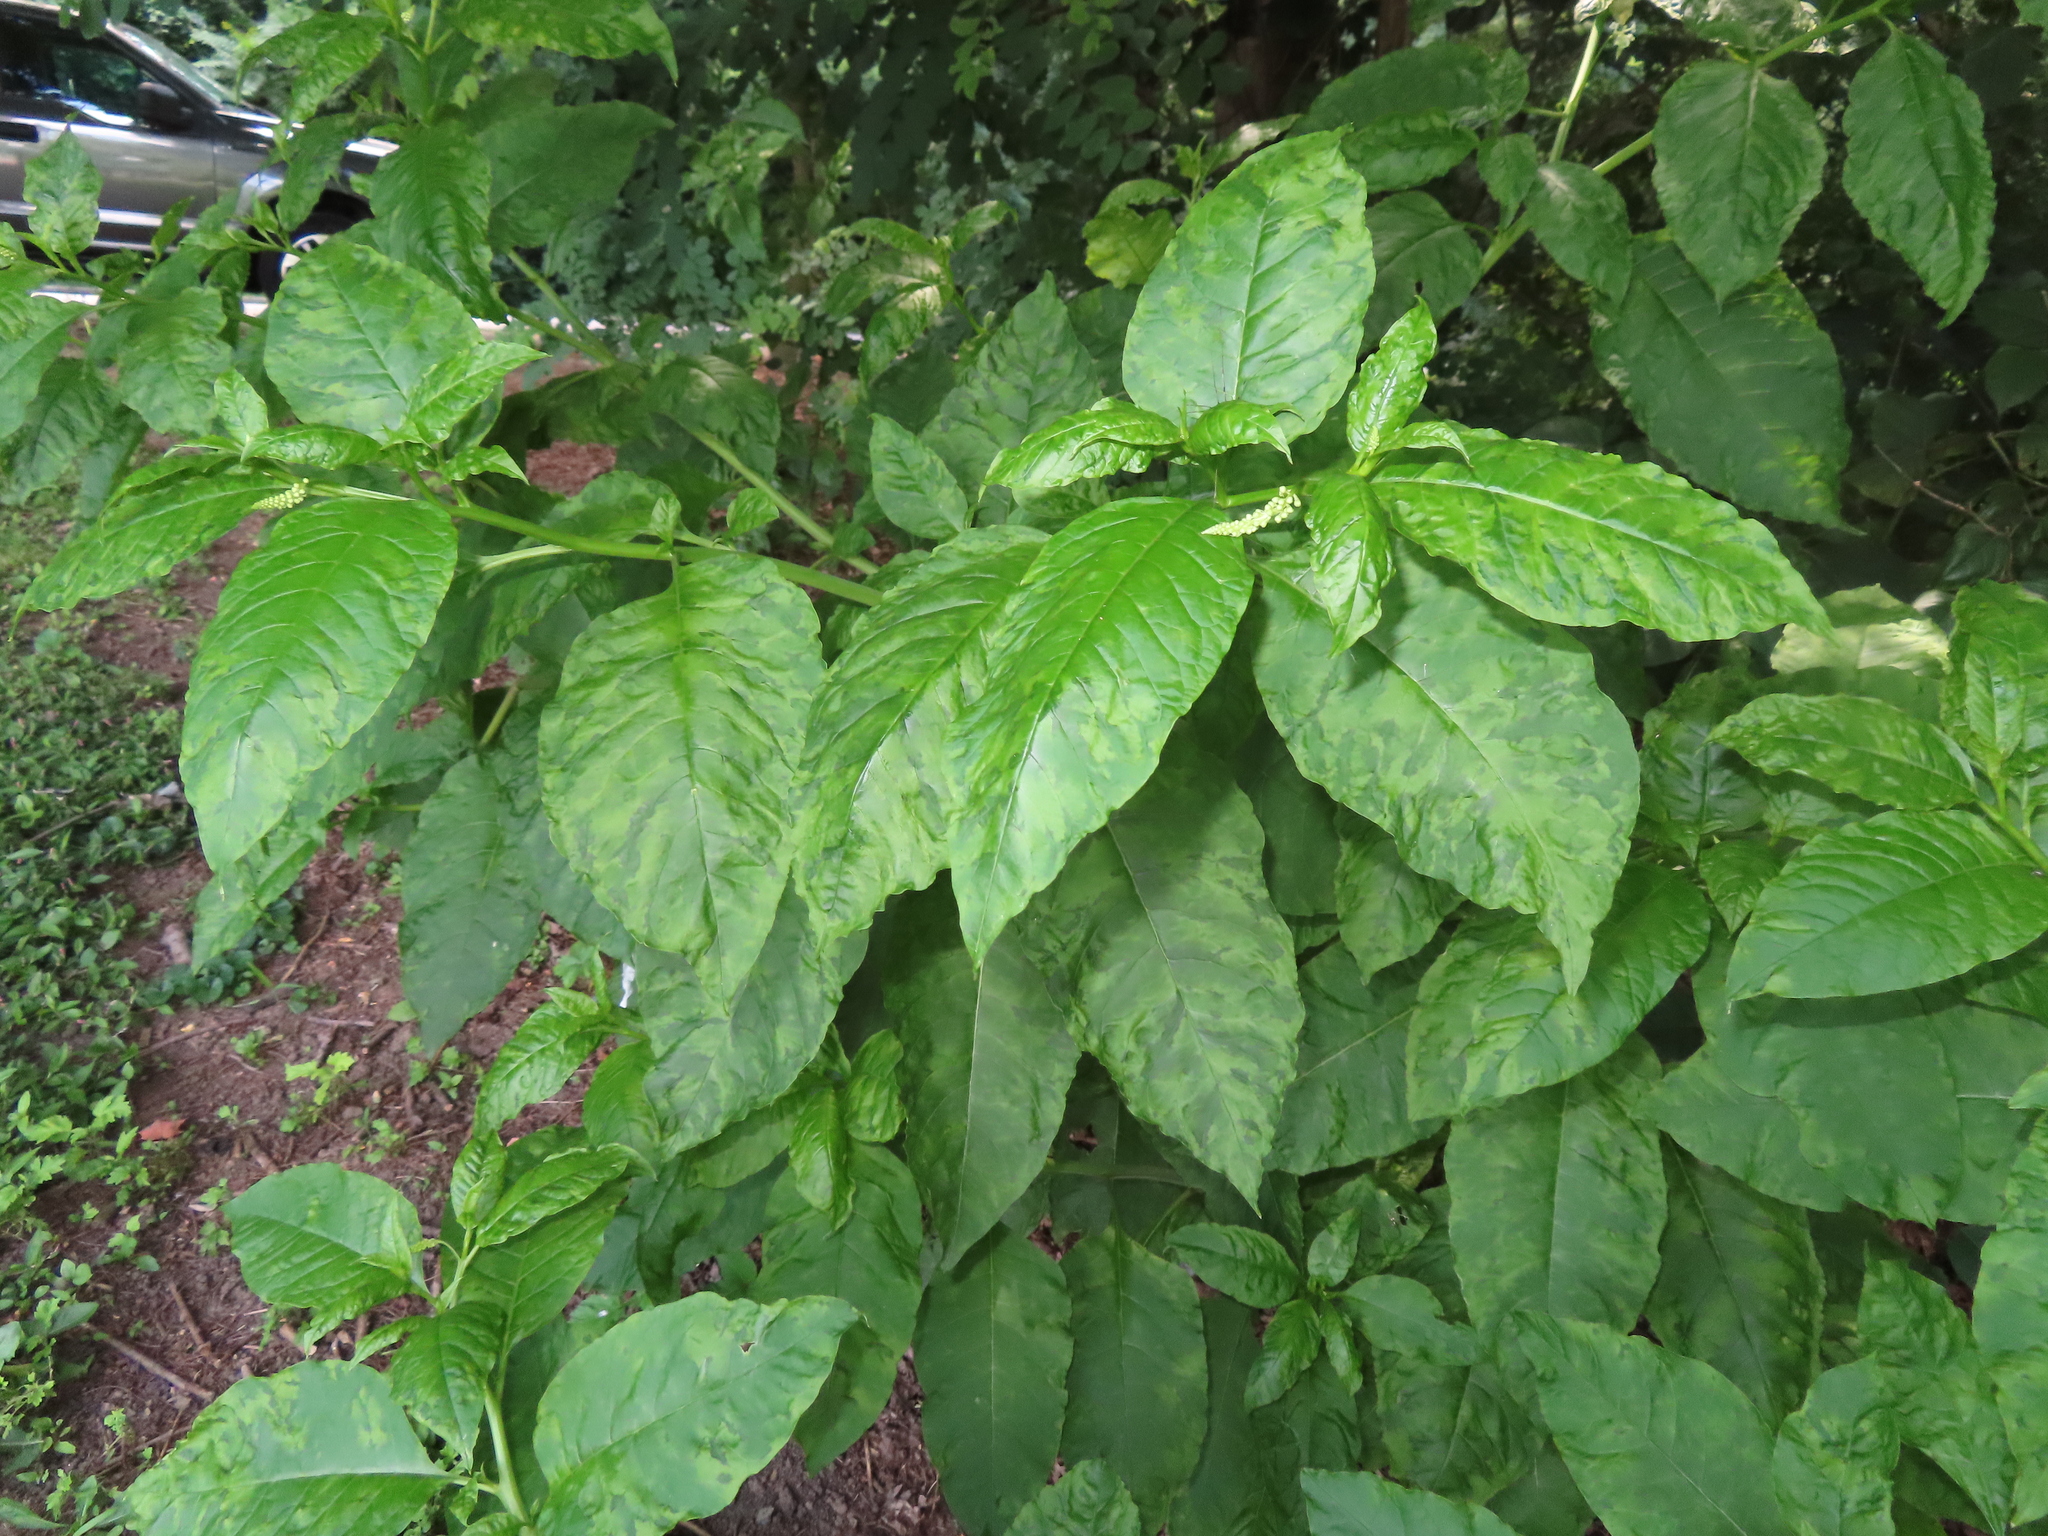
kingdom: Viruses
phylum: Pisuviricota
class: Stelpaviricetes
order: Patatavirales
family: Potyviridae
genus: Potyvirus
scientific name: Potyvirus Pokeweed mosaic virus
